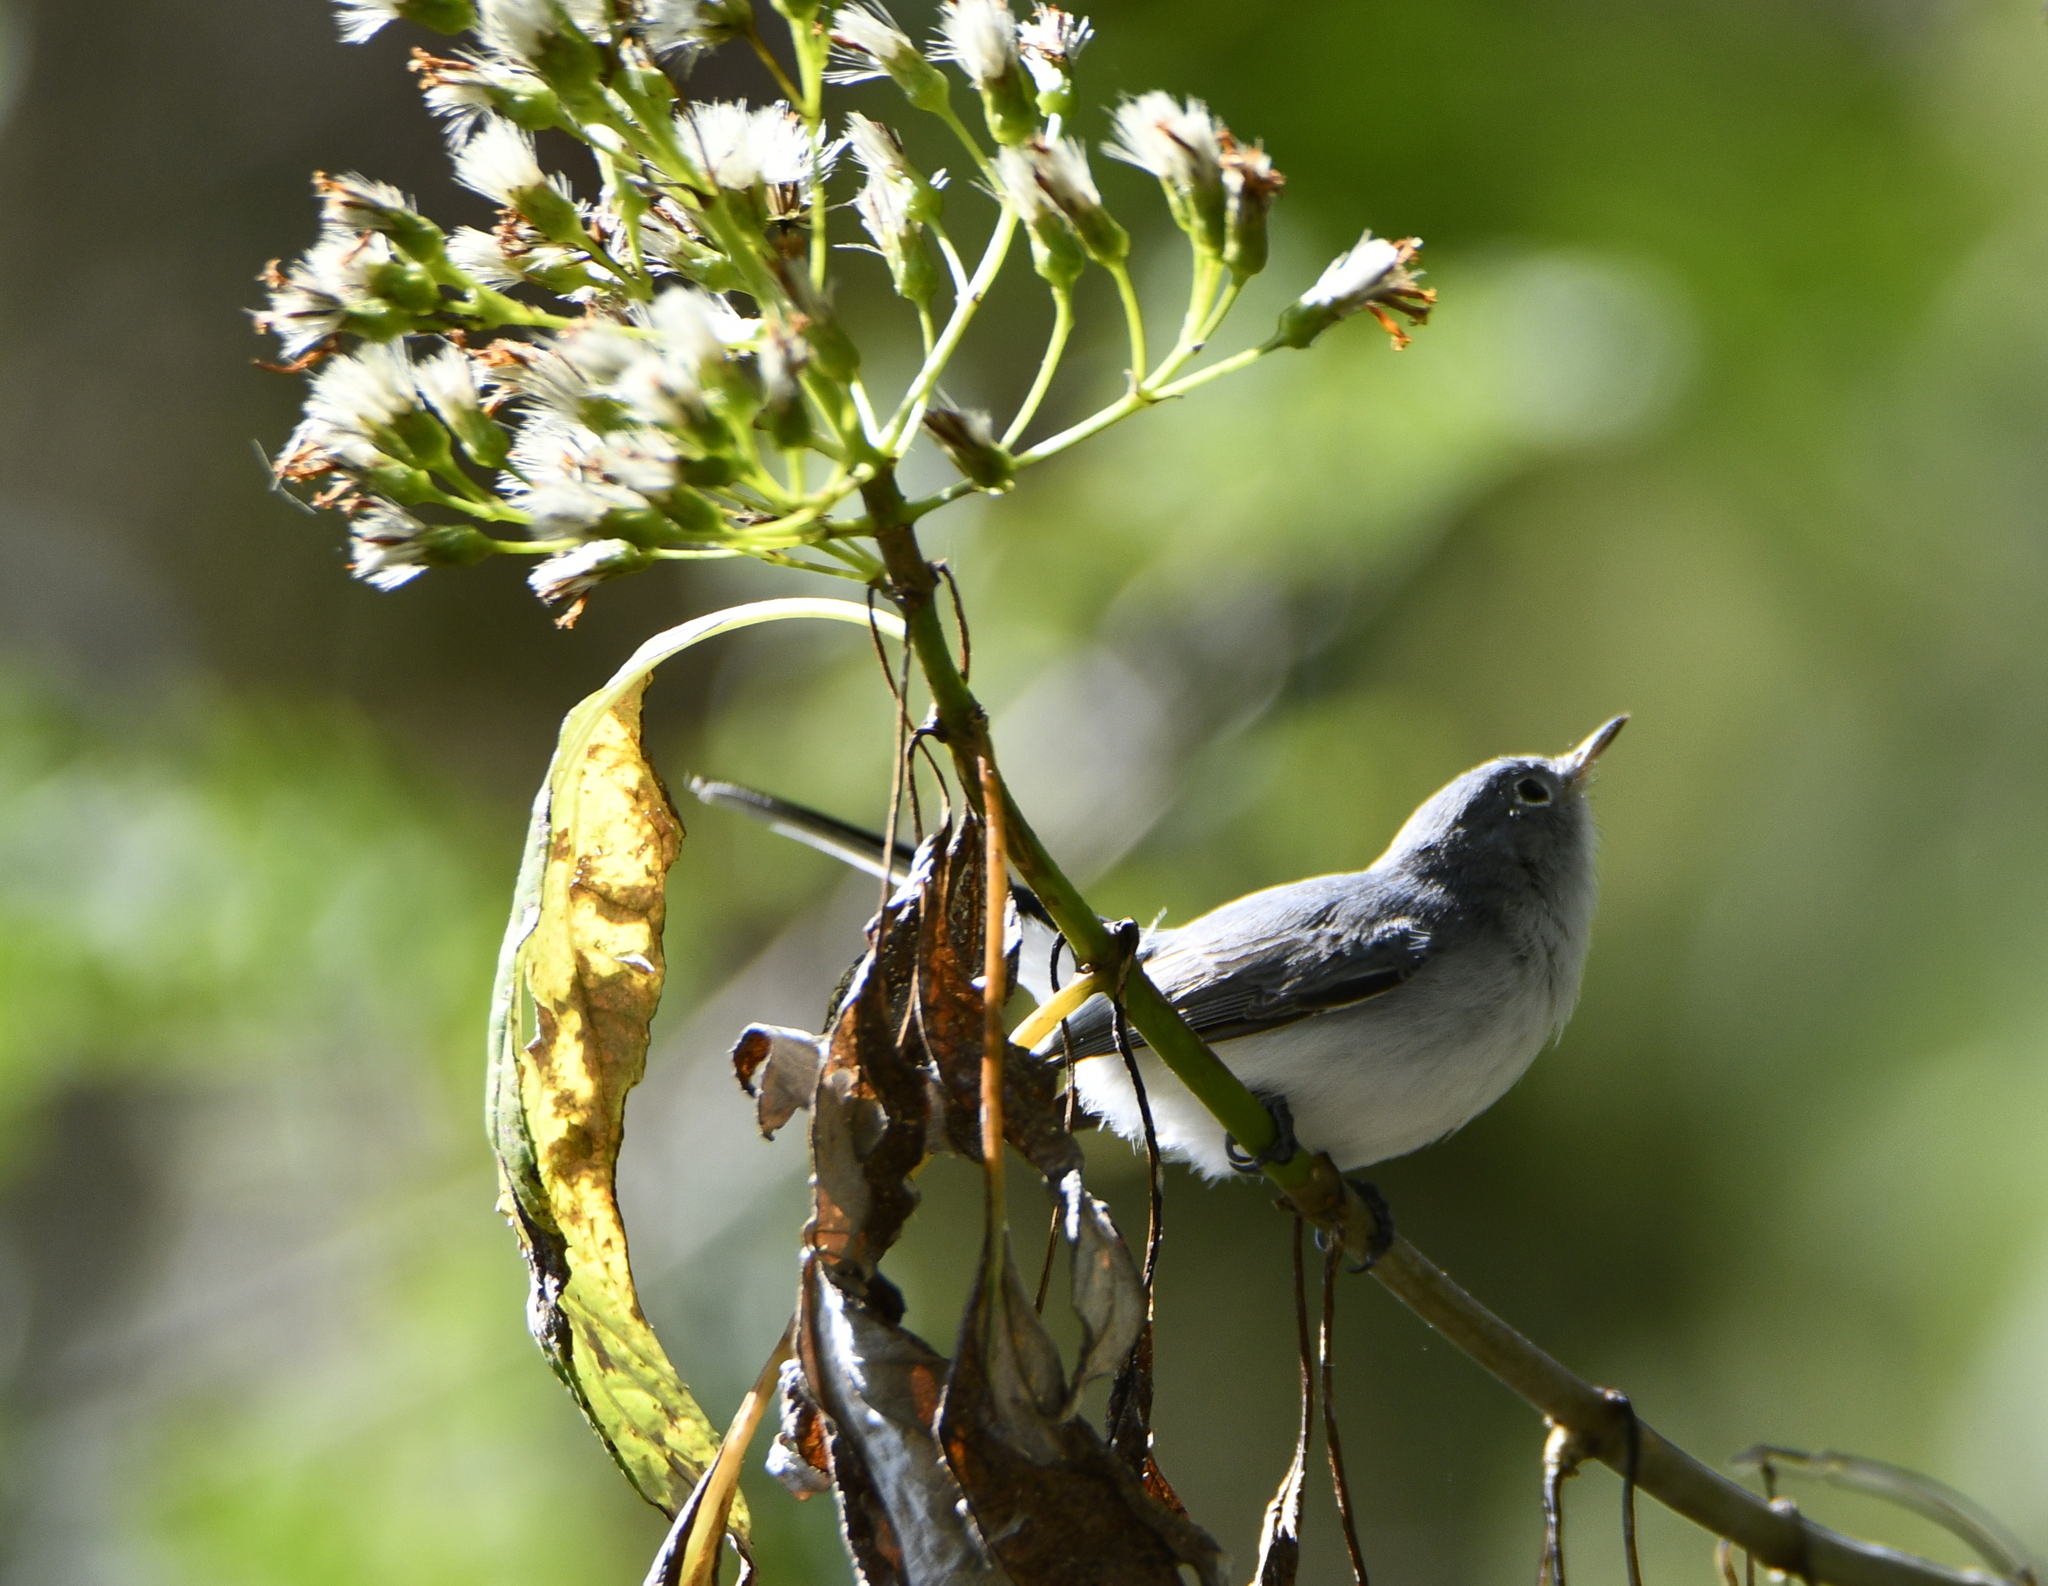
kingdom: Animalia
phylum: Chordata
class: Aves
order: Passeriformes
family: Polioptilidae
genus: Polioptila
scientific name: Polioptila caerulea
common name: Blue-gray gnatcatcher
